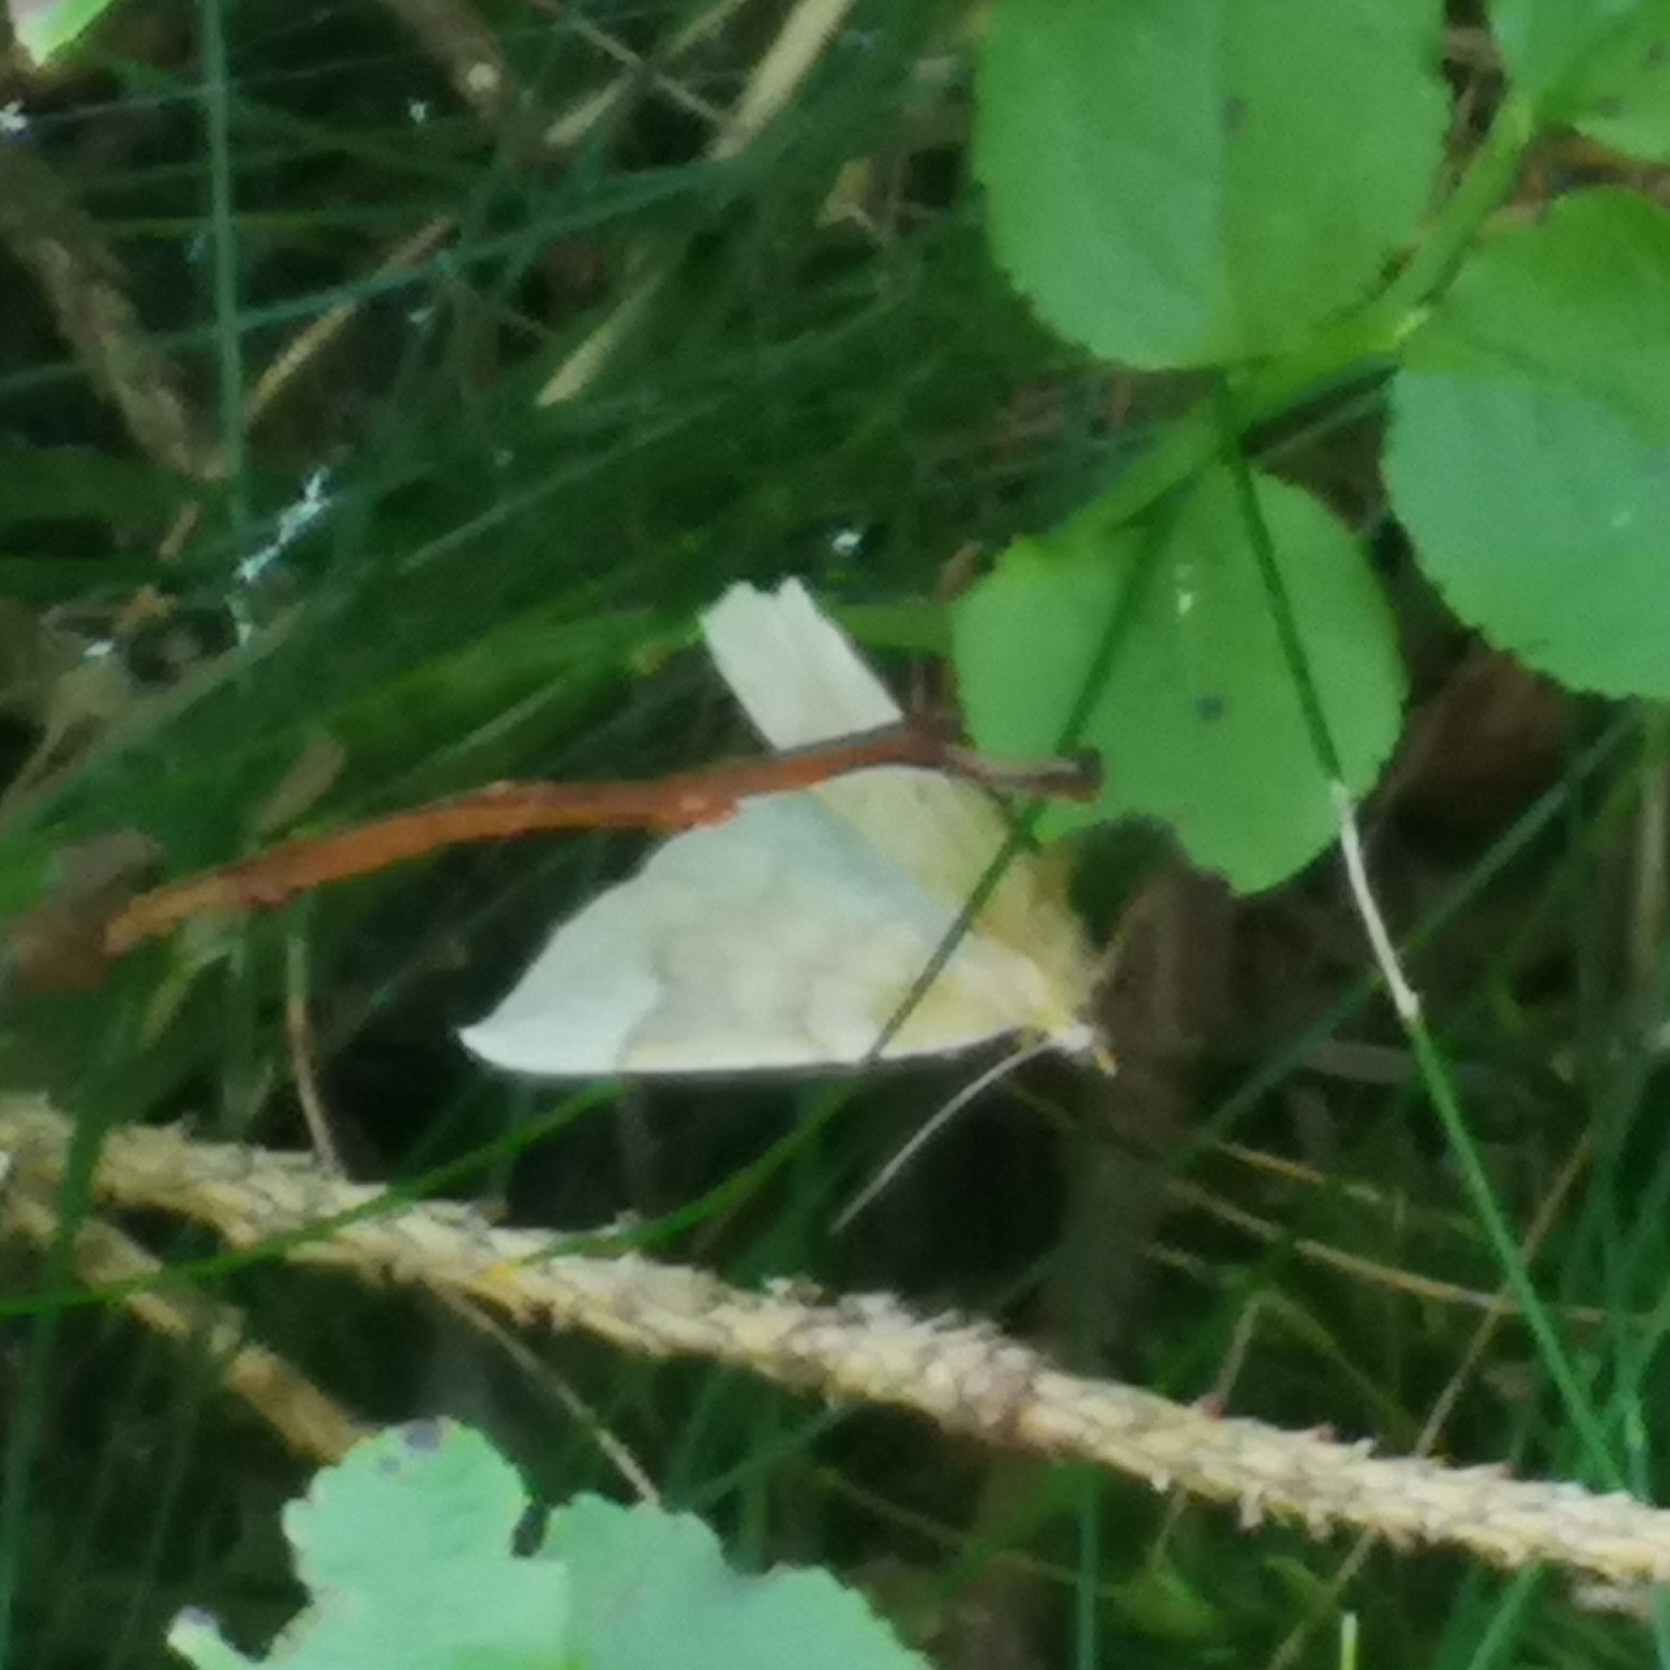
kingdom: Animalia
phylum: Arthropoda
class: Insecta
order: Lepidoptera
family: Geometridae
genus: Eulithis
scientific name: Eulithis populata
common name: Northern spinach
